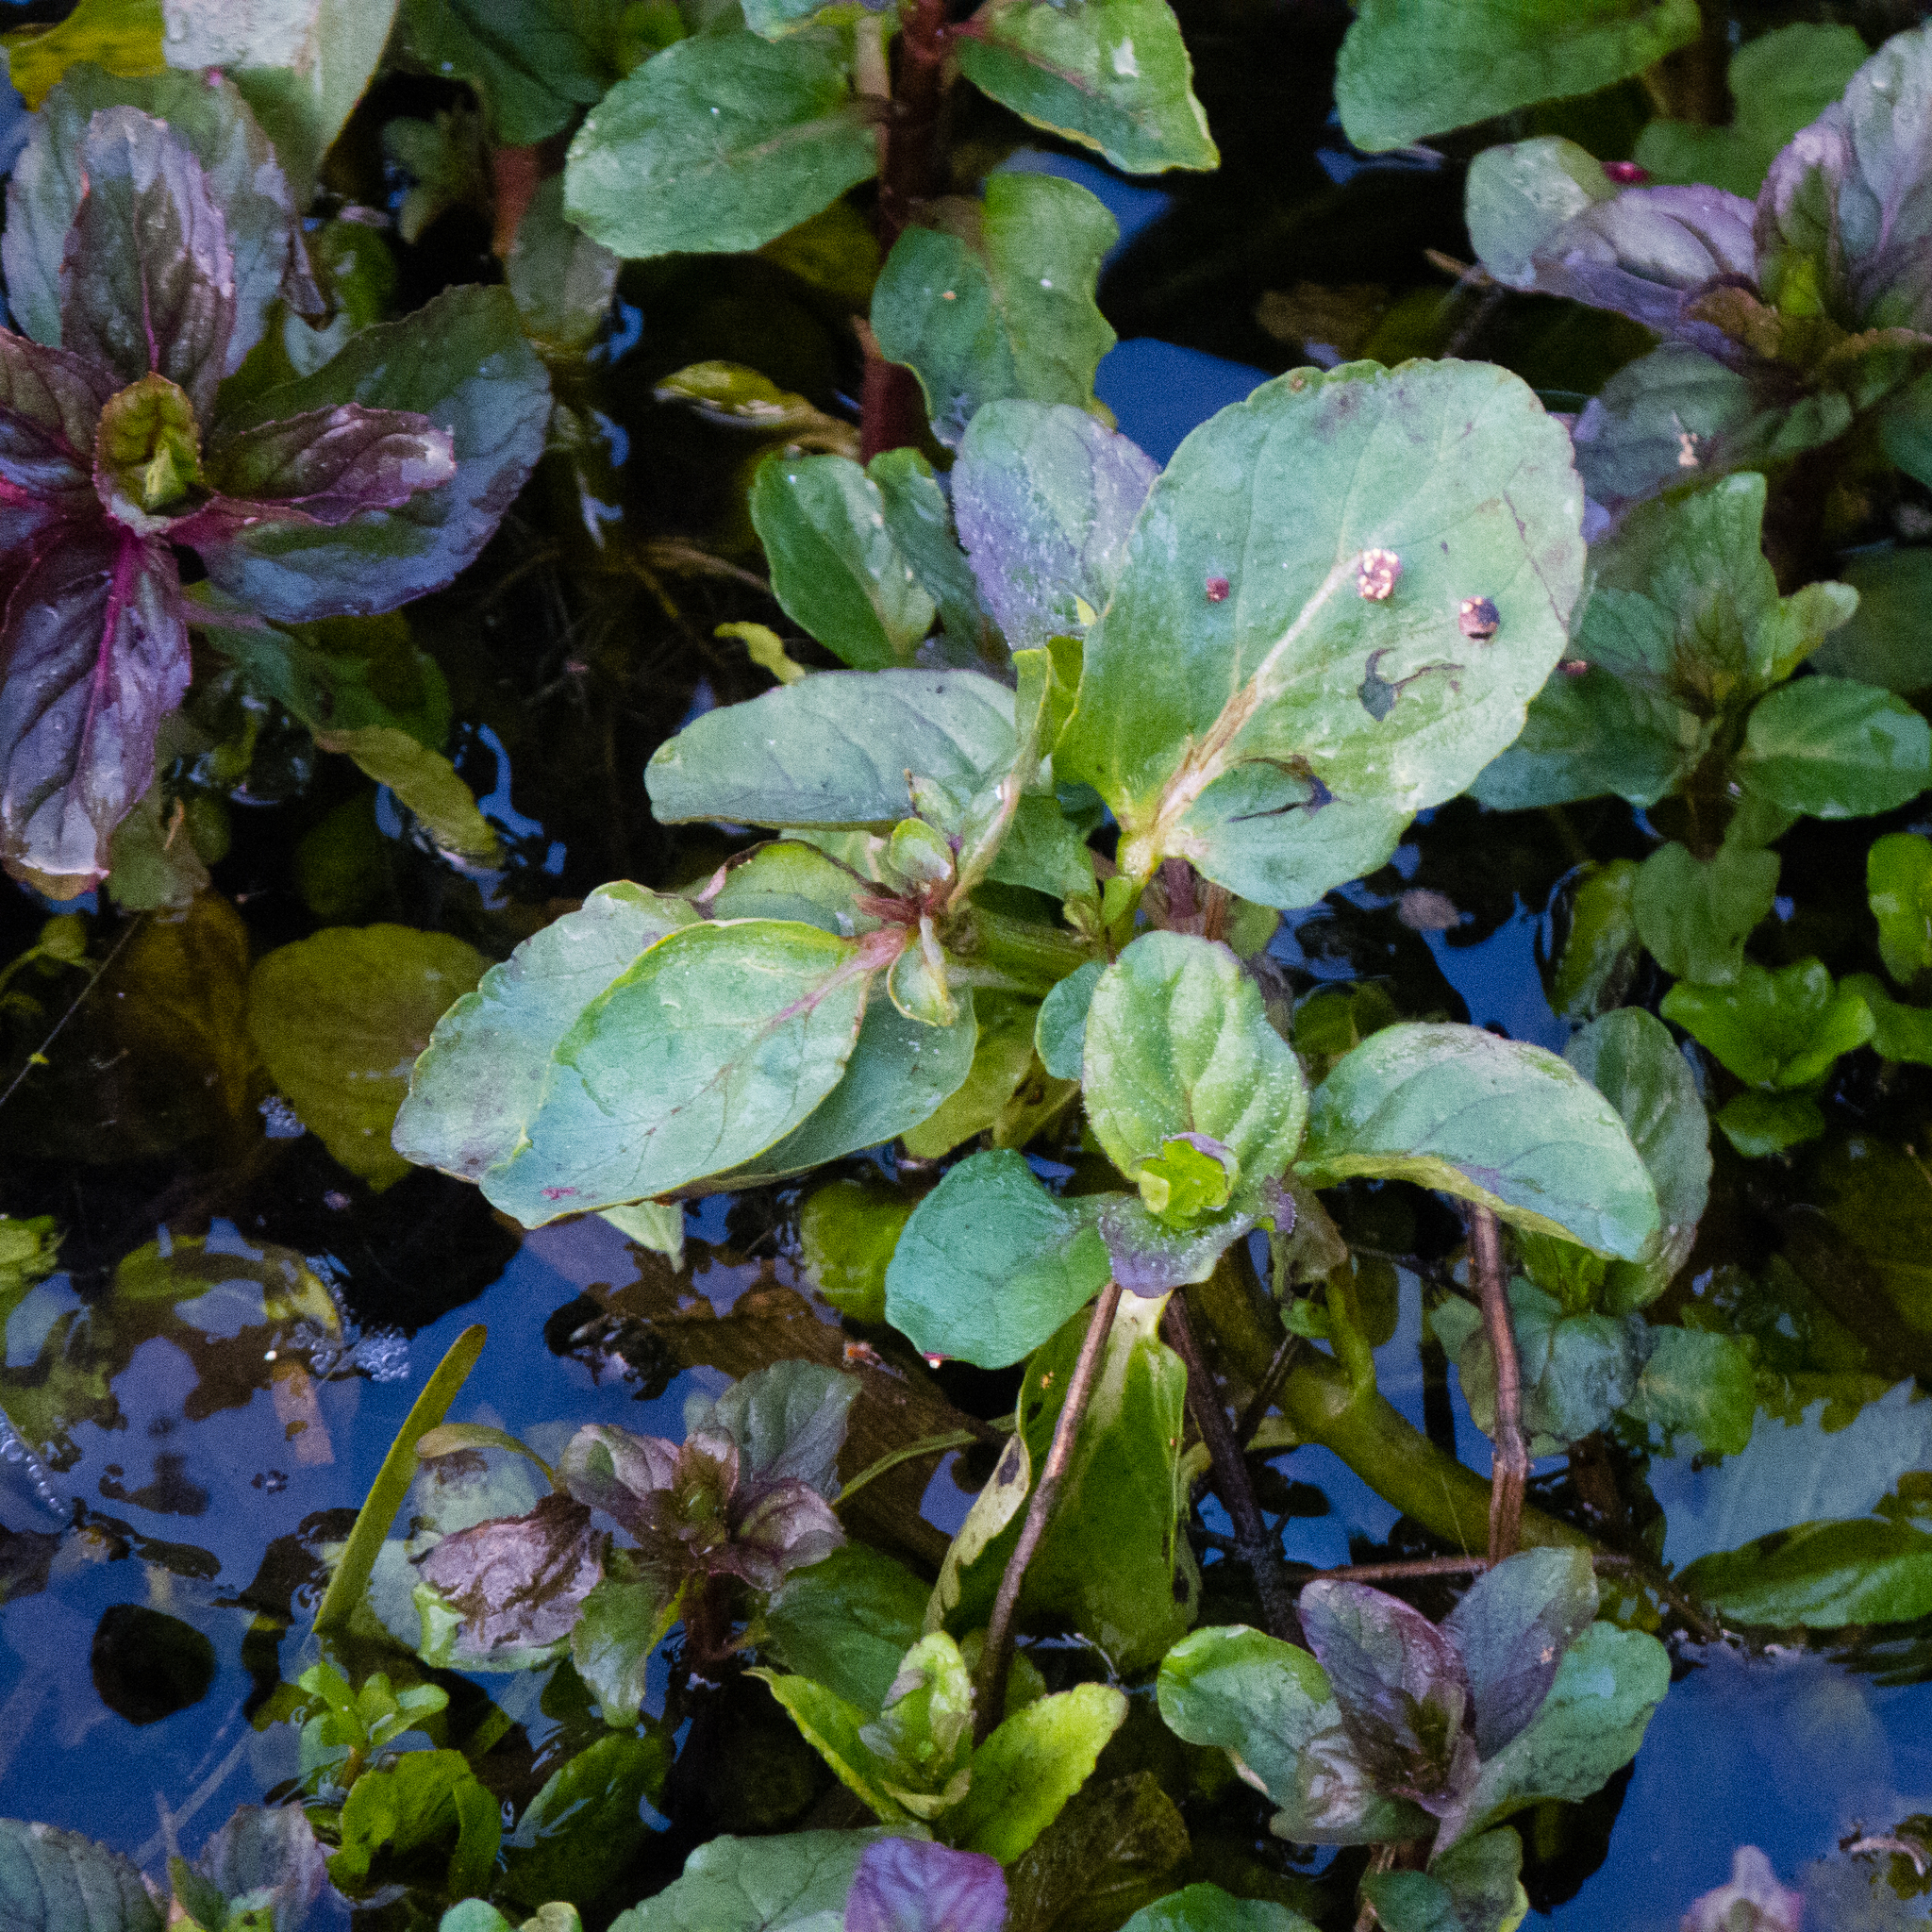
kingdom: Plantae
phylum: Tracheophyta
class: Magnoliopsida
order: Lamiales
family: Lamiaceae
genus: Mentha
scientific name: Mentha aquatica
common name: Water mint
